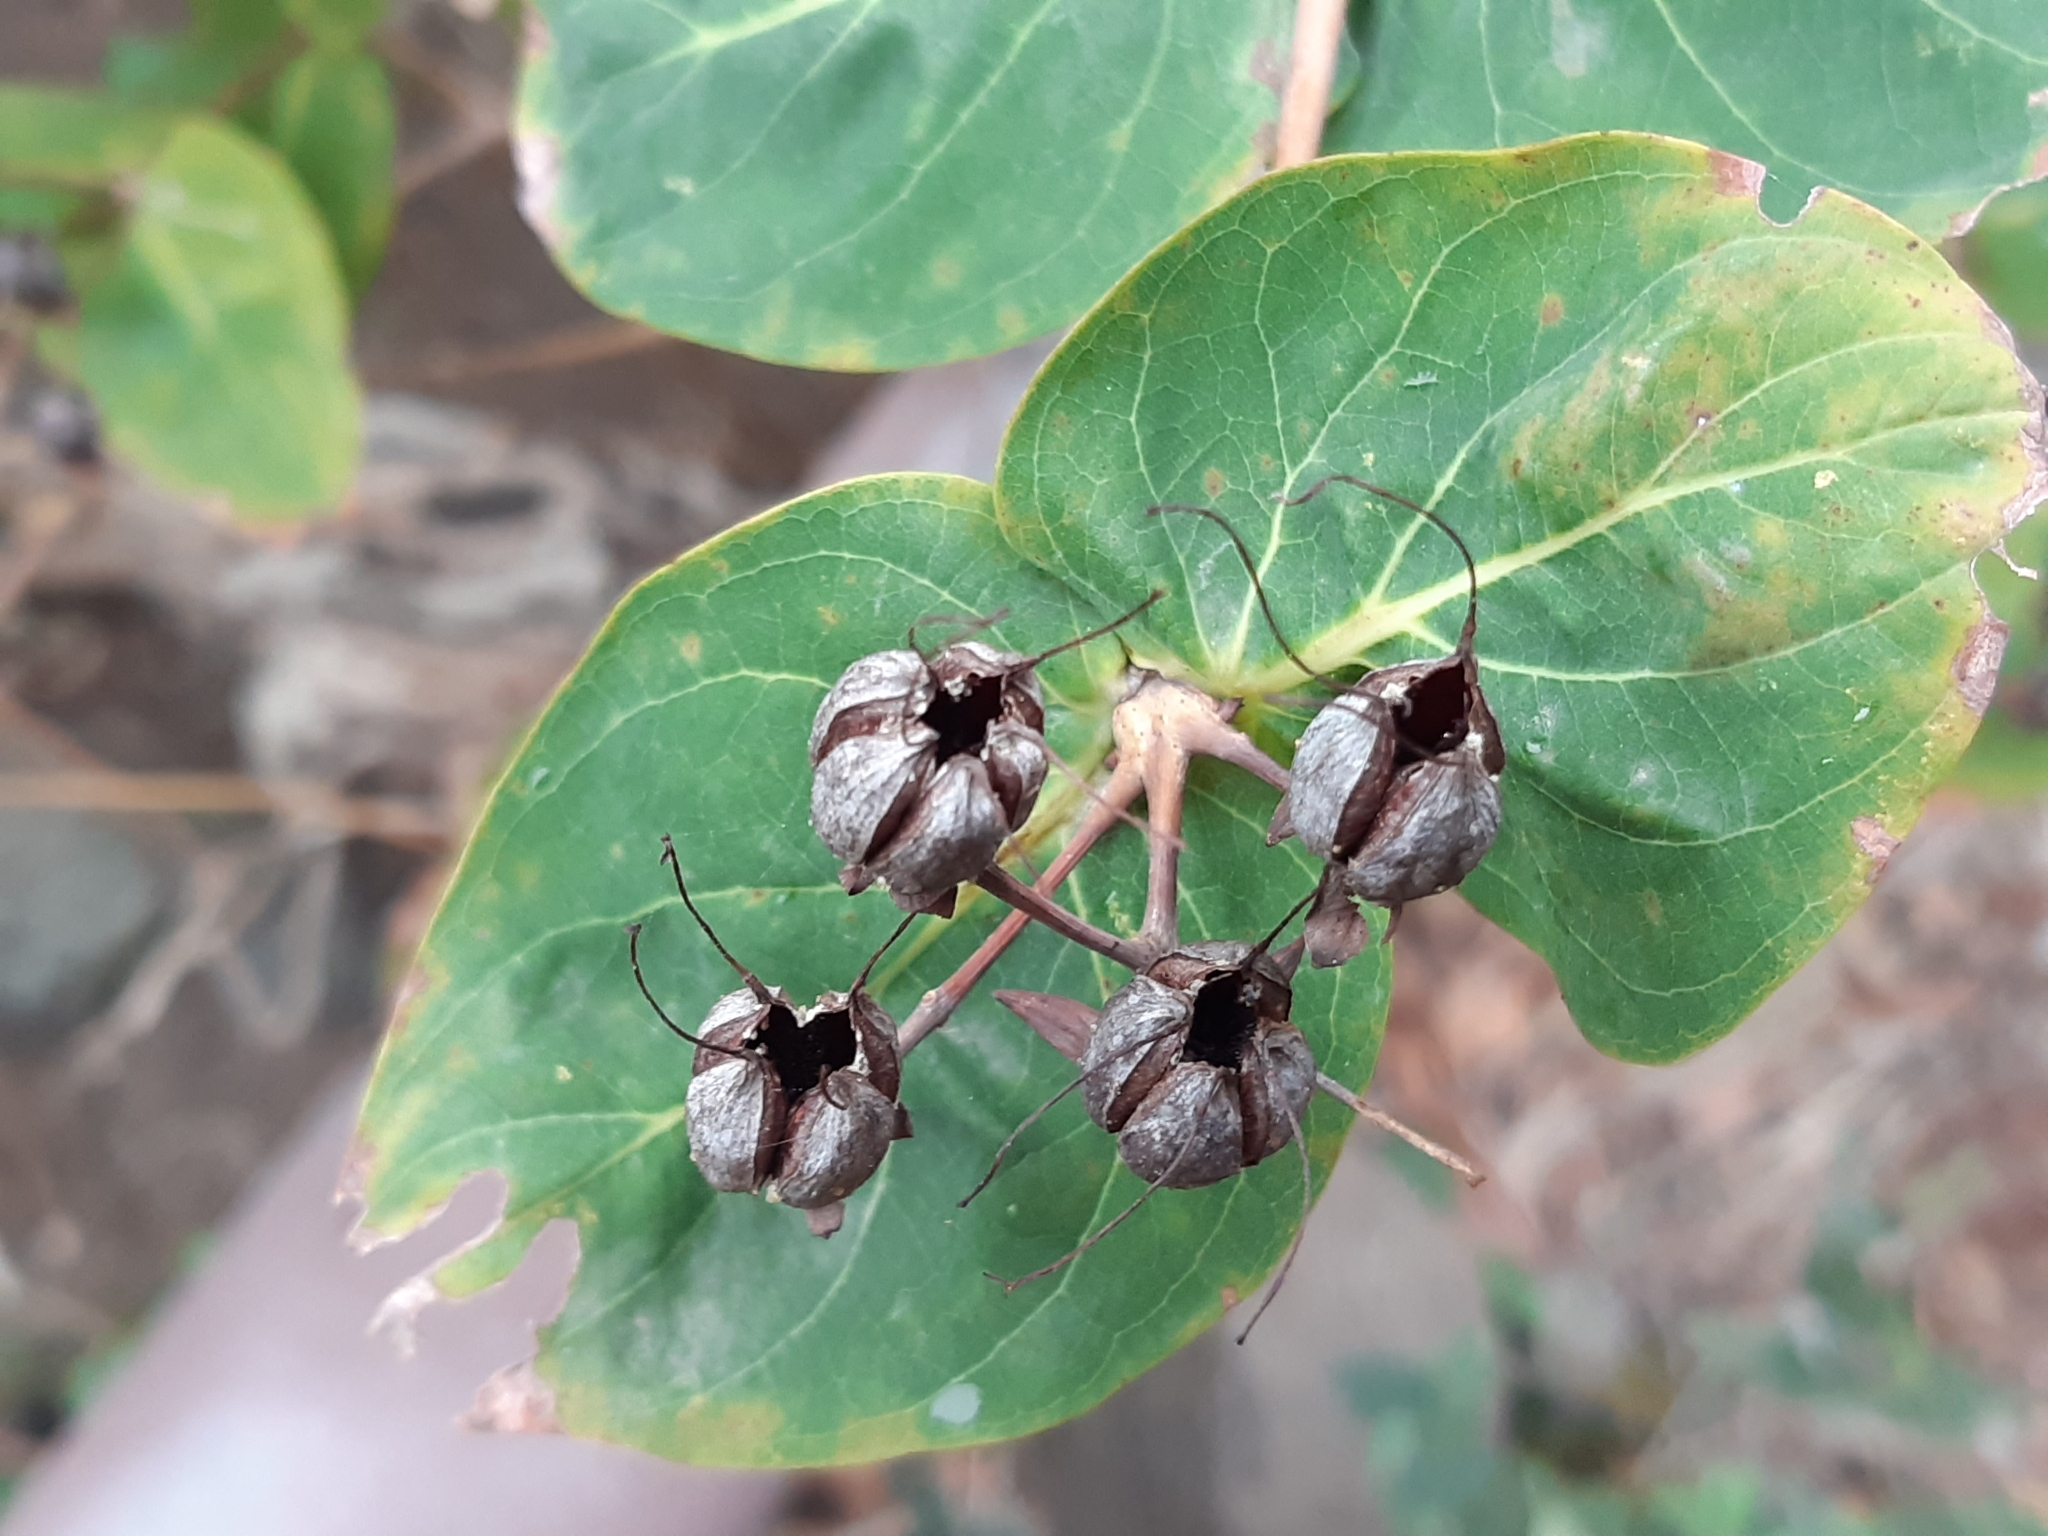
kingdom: Plantae
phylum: Tracheophyta
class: Magnoliopsida
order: Malpighiales
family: Hypericaceae
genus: Hypericum
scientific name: Hypericum grandifolium
